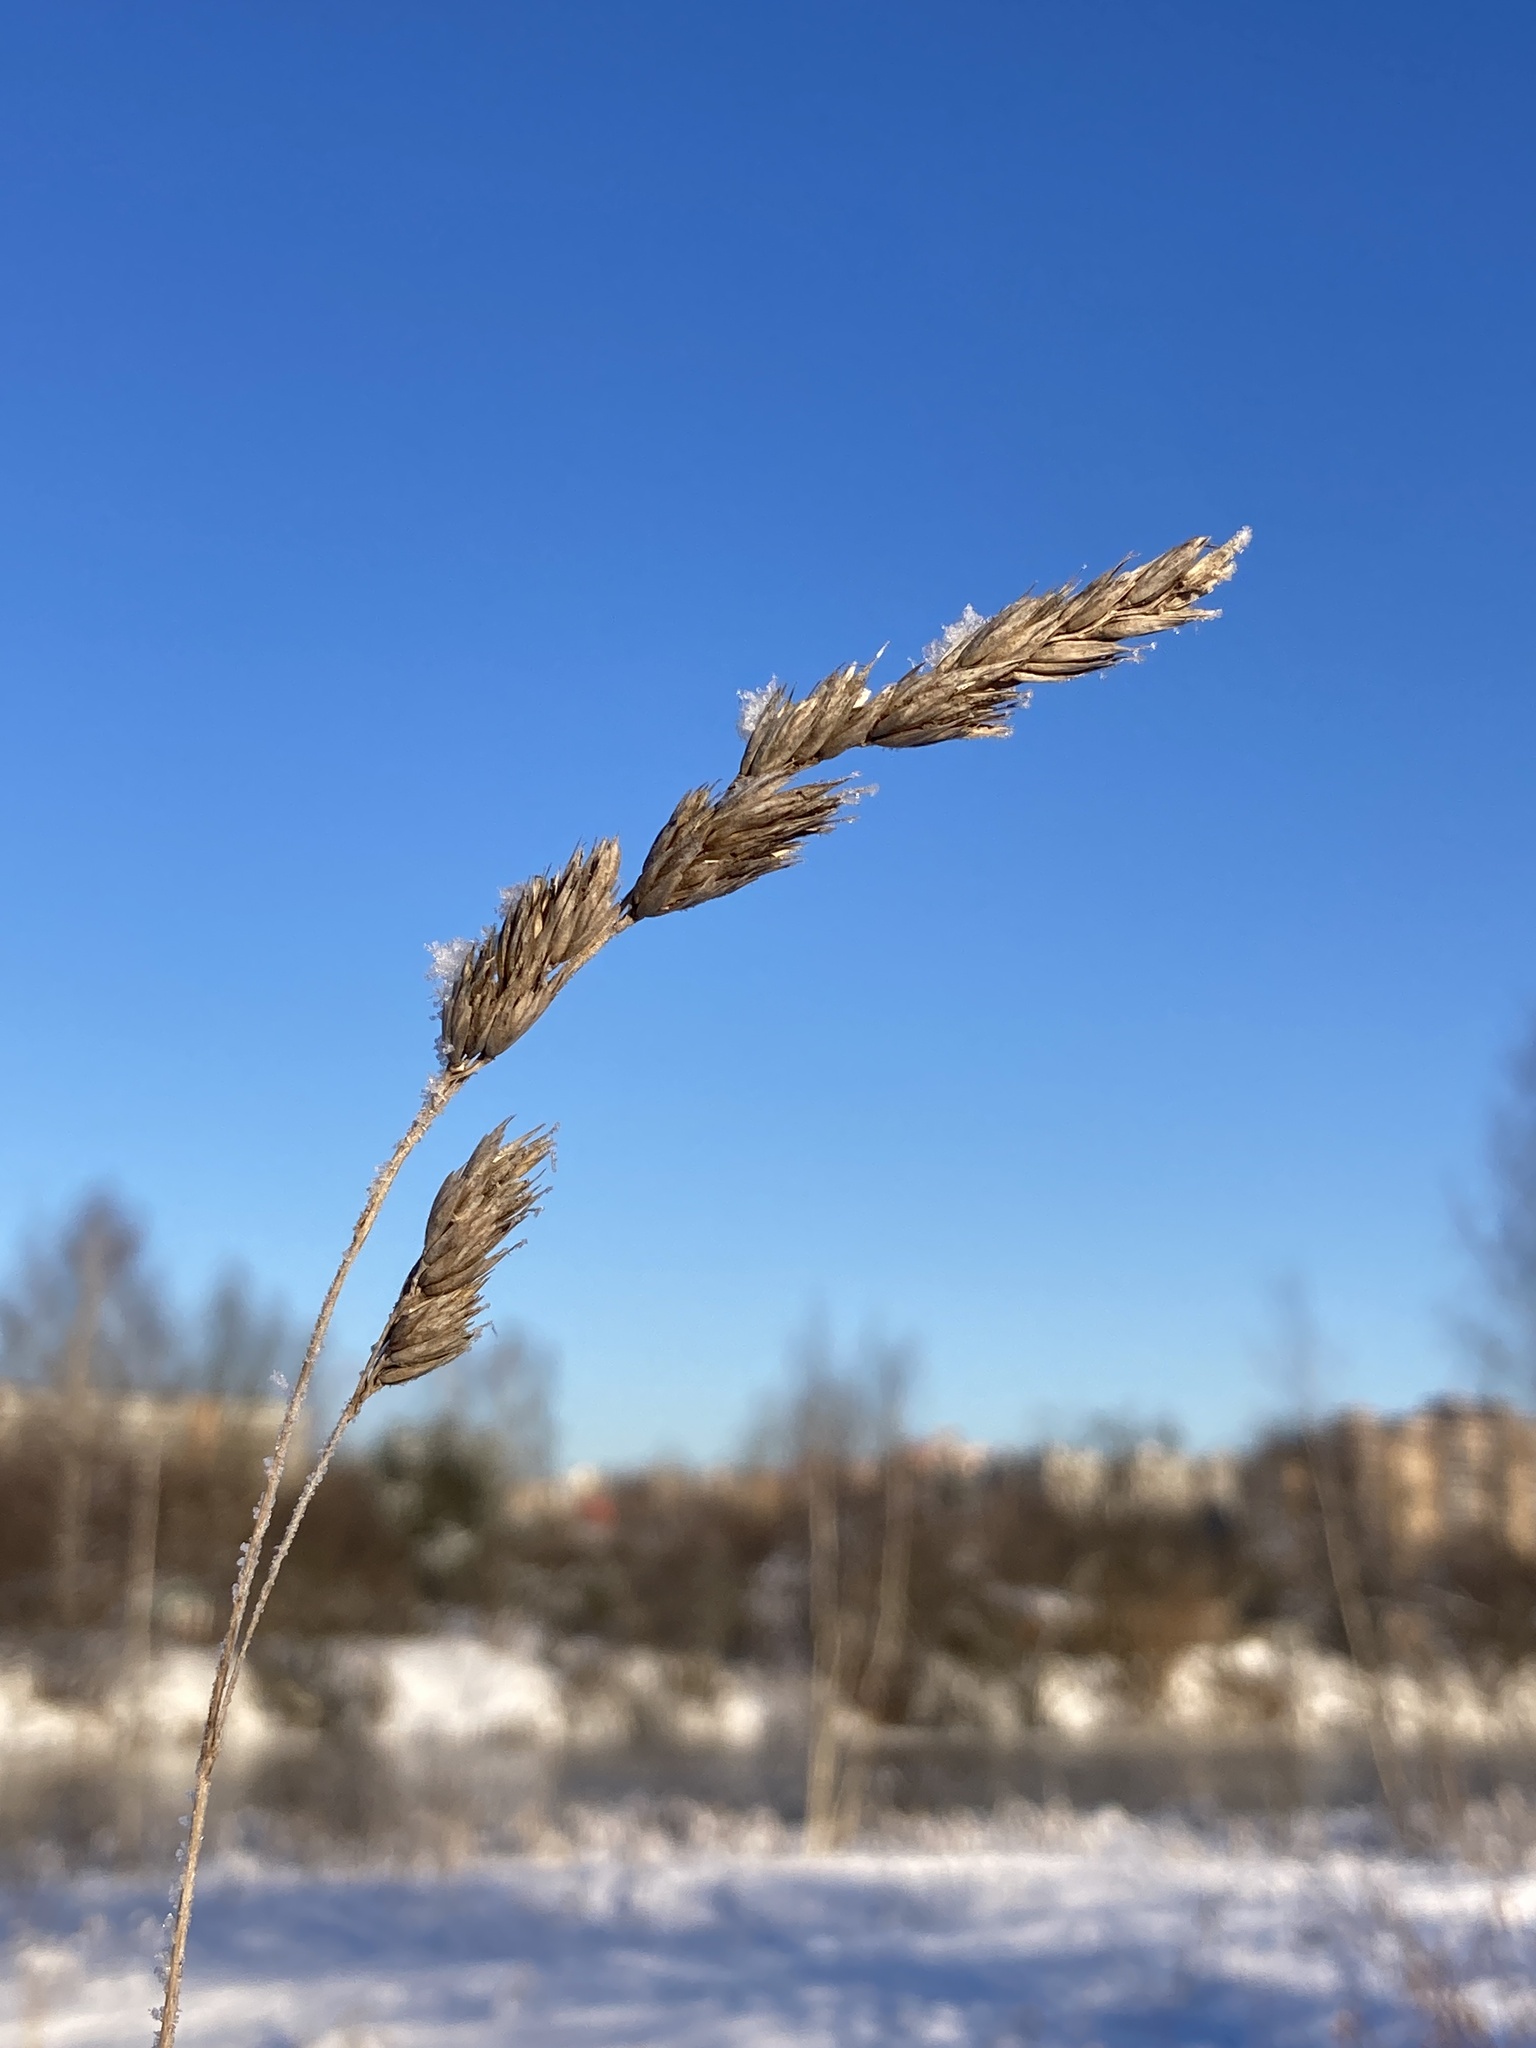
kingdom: Plantae
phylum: Tracheophyta
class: Liliopsida
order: Poales
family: Poaceae
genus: Dactylis
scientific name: Dactylis glomerata
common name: Orchardgrass
